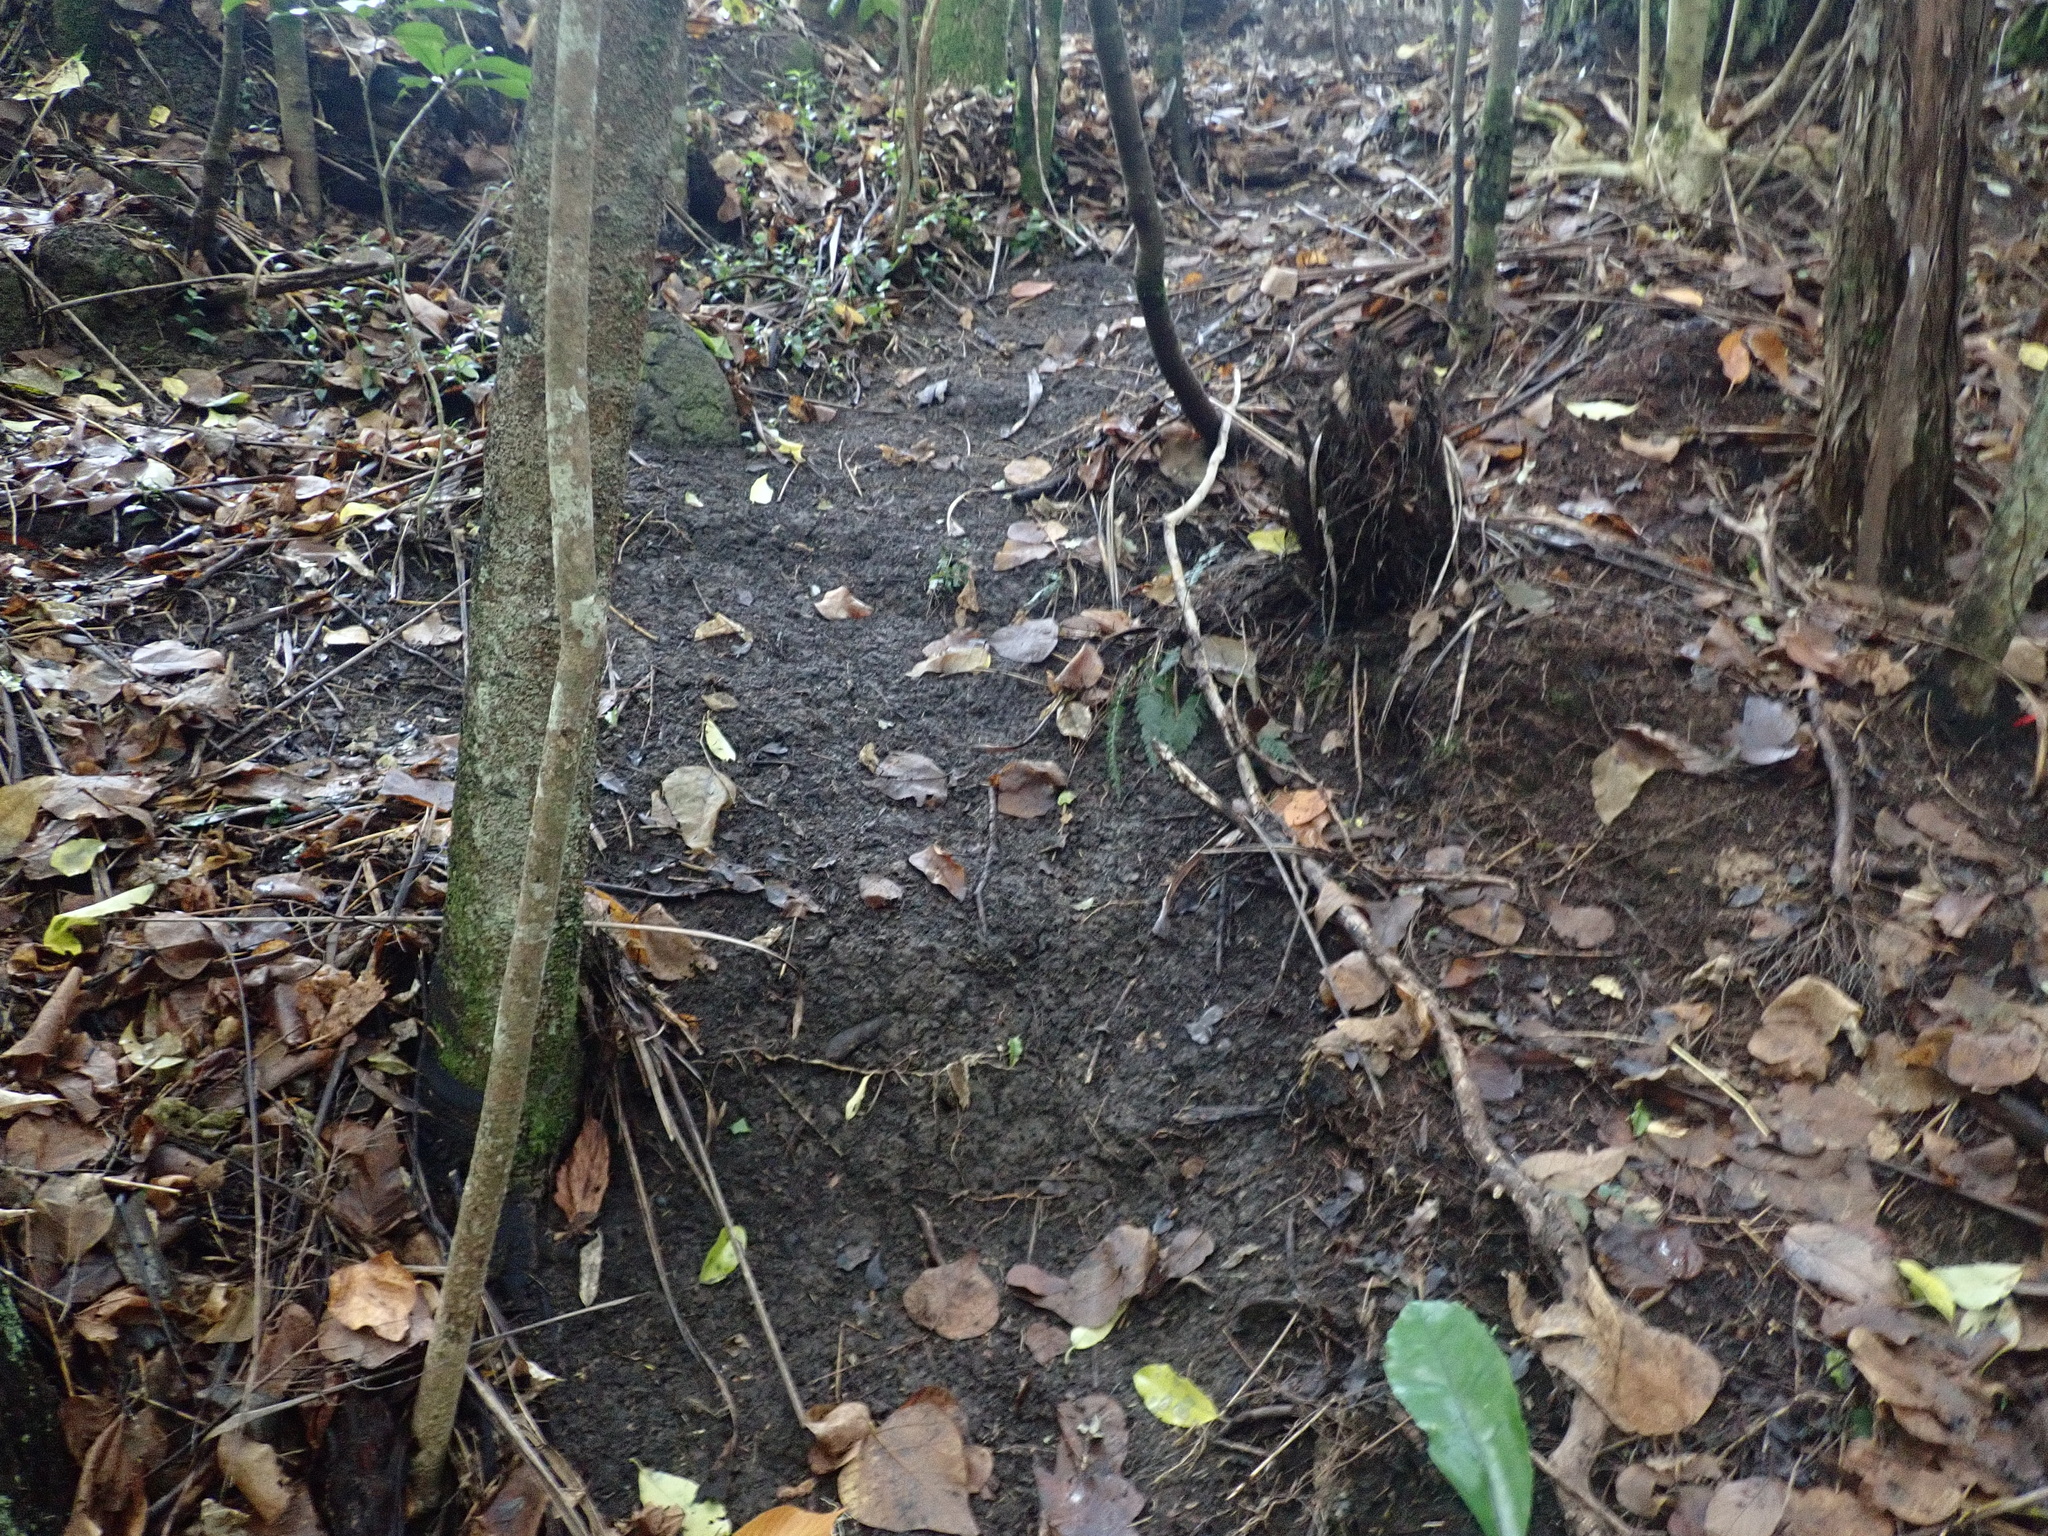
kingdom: Plantae
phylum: Tracheophyta
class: Polypodiopsida
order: Polypodiales
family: Blechnaceae
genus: Doodia
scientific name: Doodia australis
